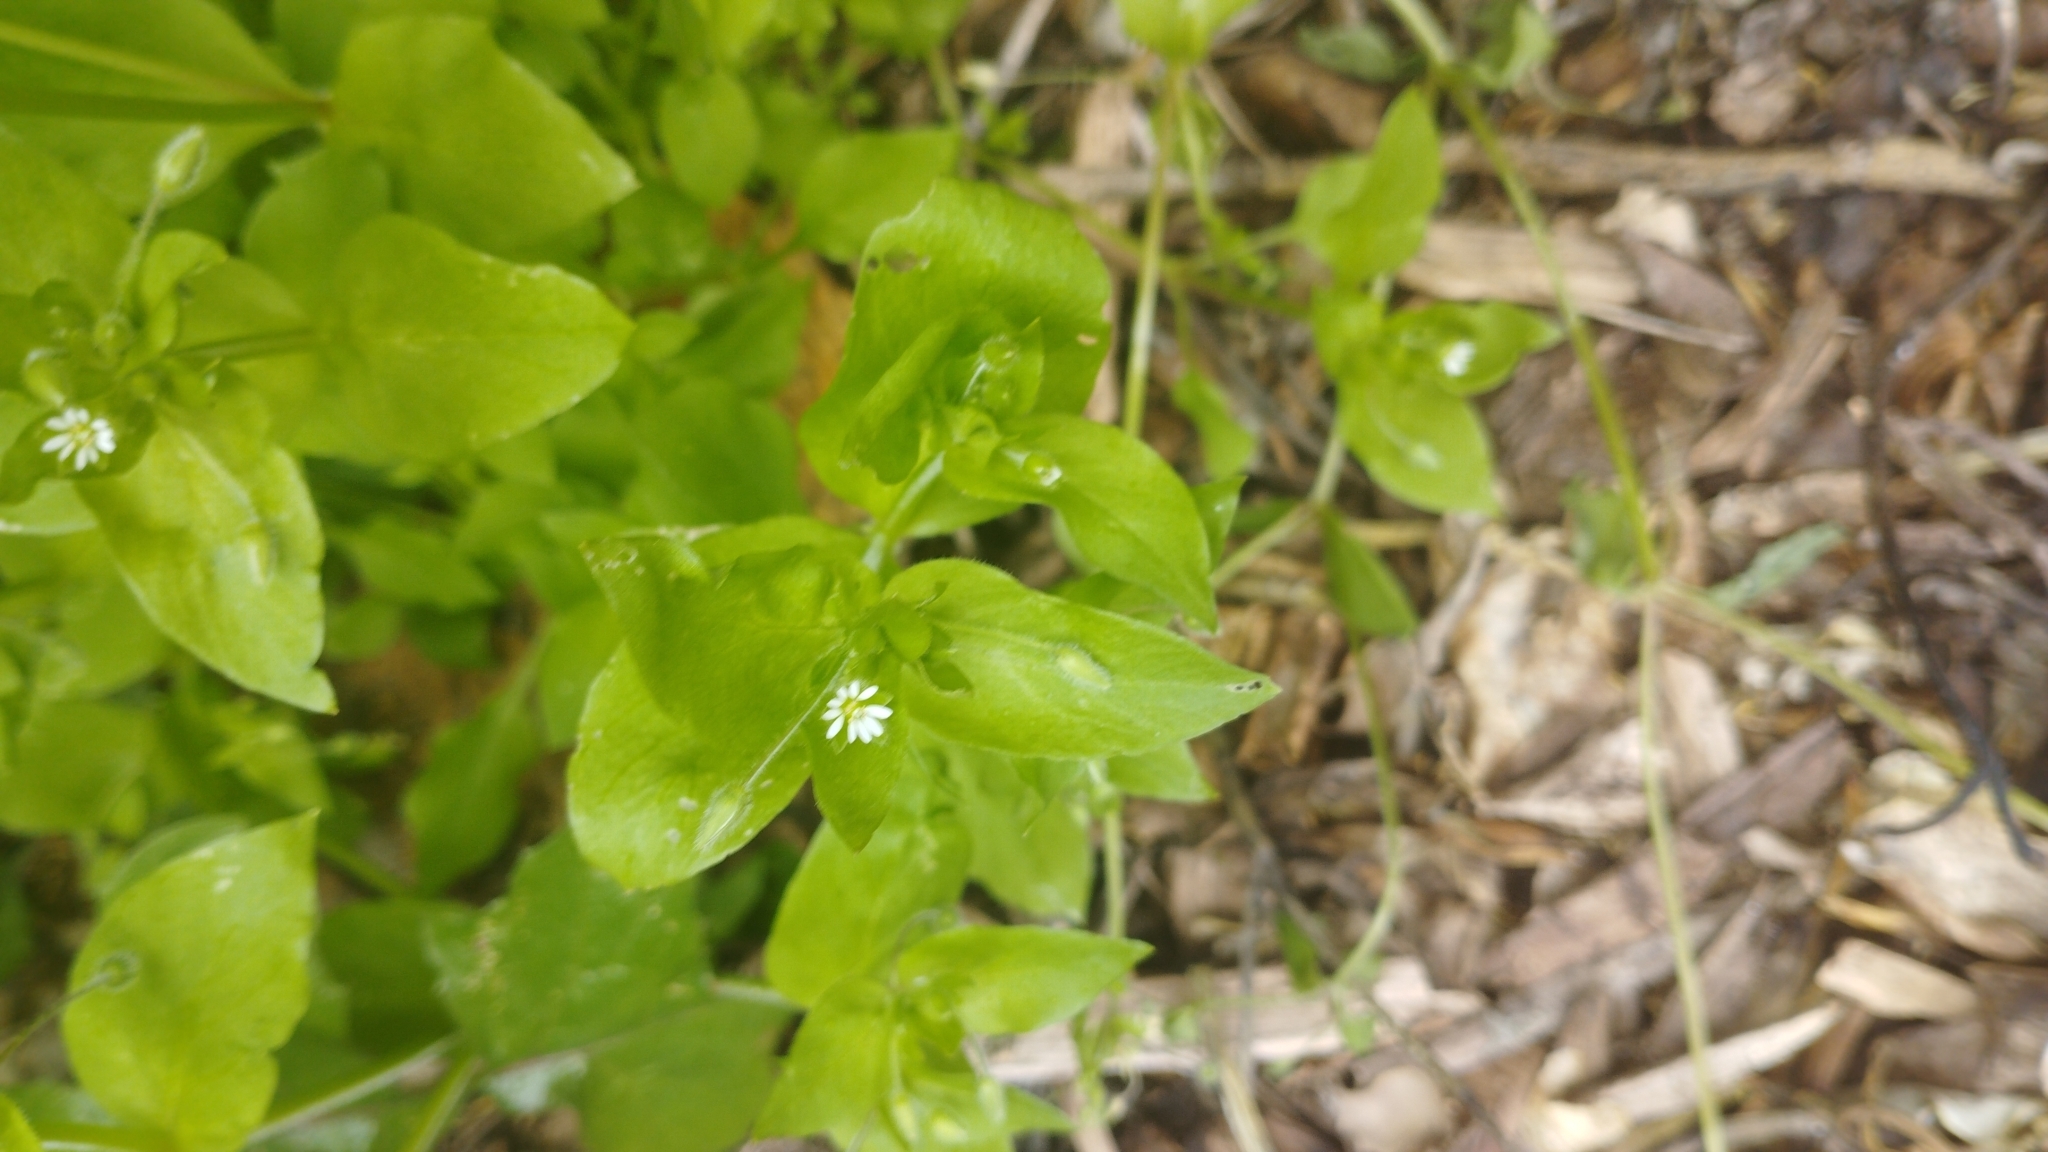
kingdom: Plantae
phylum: Tracheophyta
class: Magnoliopsida
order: Caryophyllales
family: Caryophyllaceae
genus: Stellaria
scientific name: Stellaria media
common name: Common chickweed
